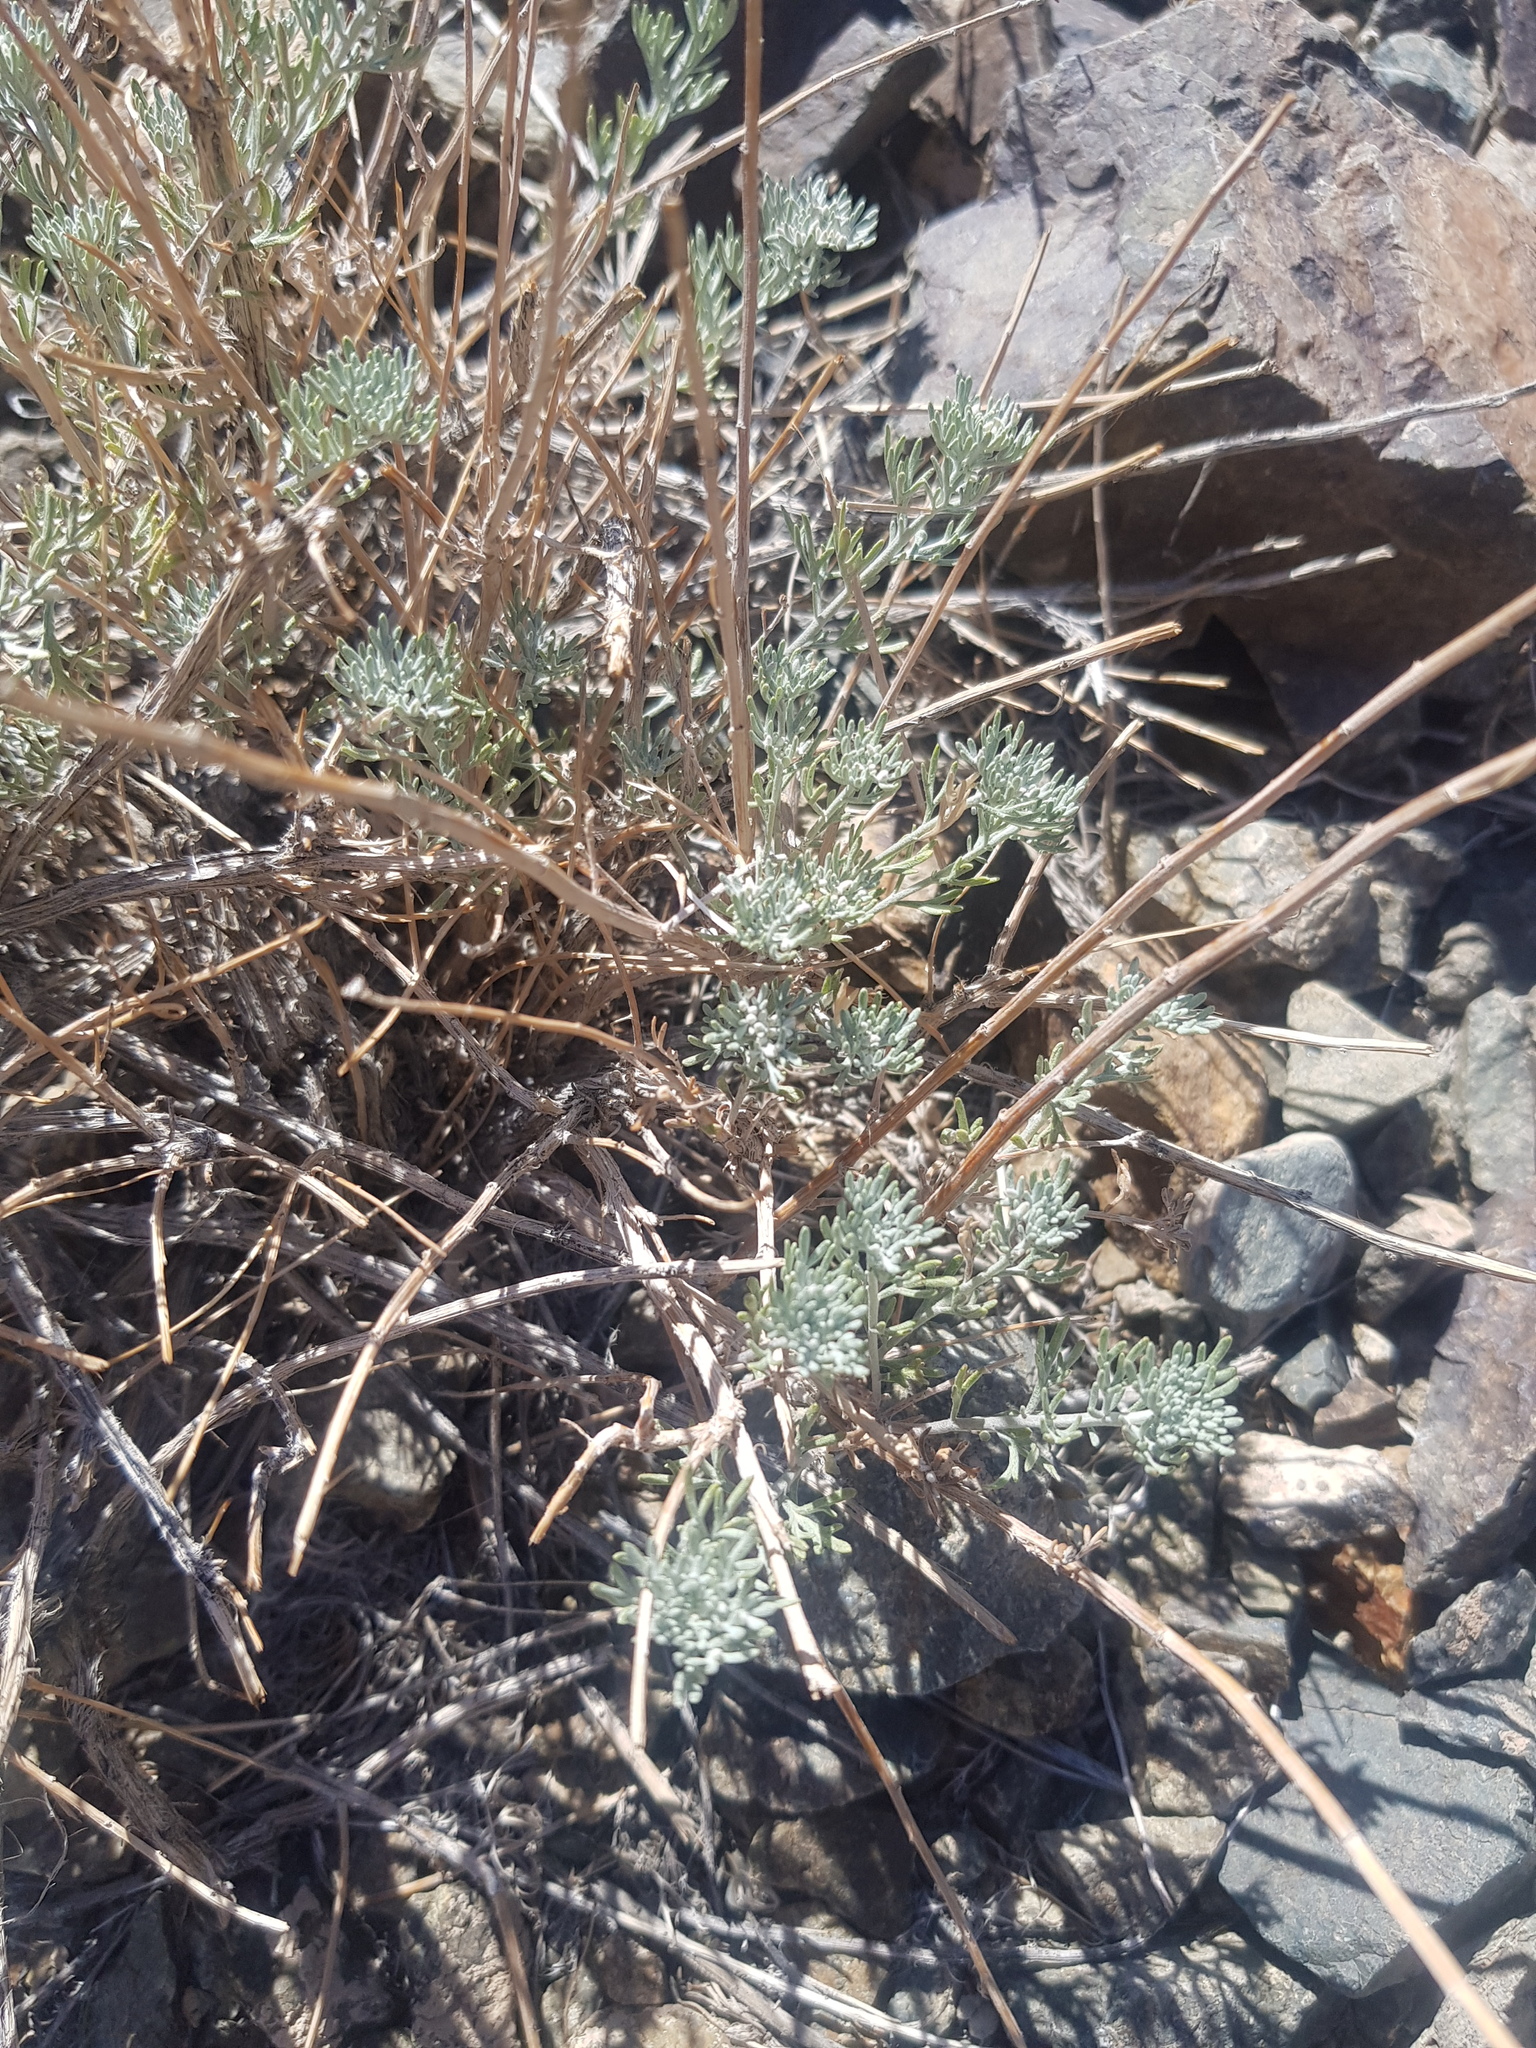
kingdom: Plantae
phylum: Tracheophyta
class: Magnoliopsida
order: Asterales
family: Asteraceae
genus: Ajania
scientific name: Ajania achilleoides
